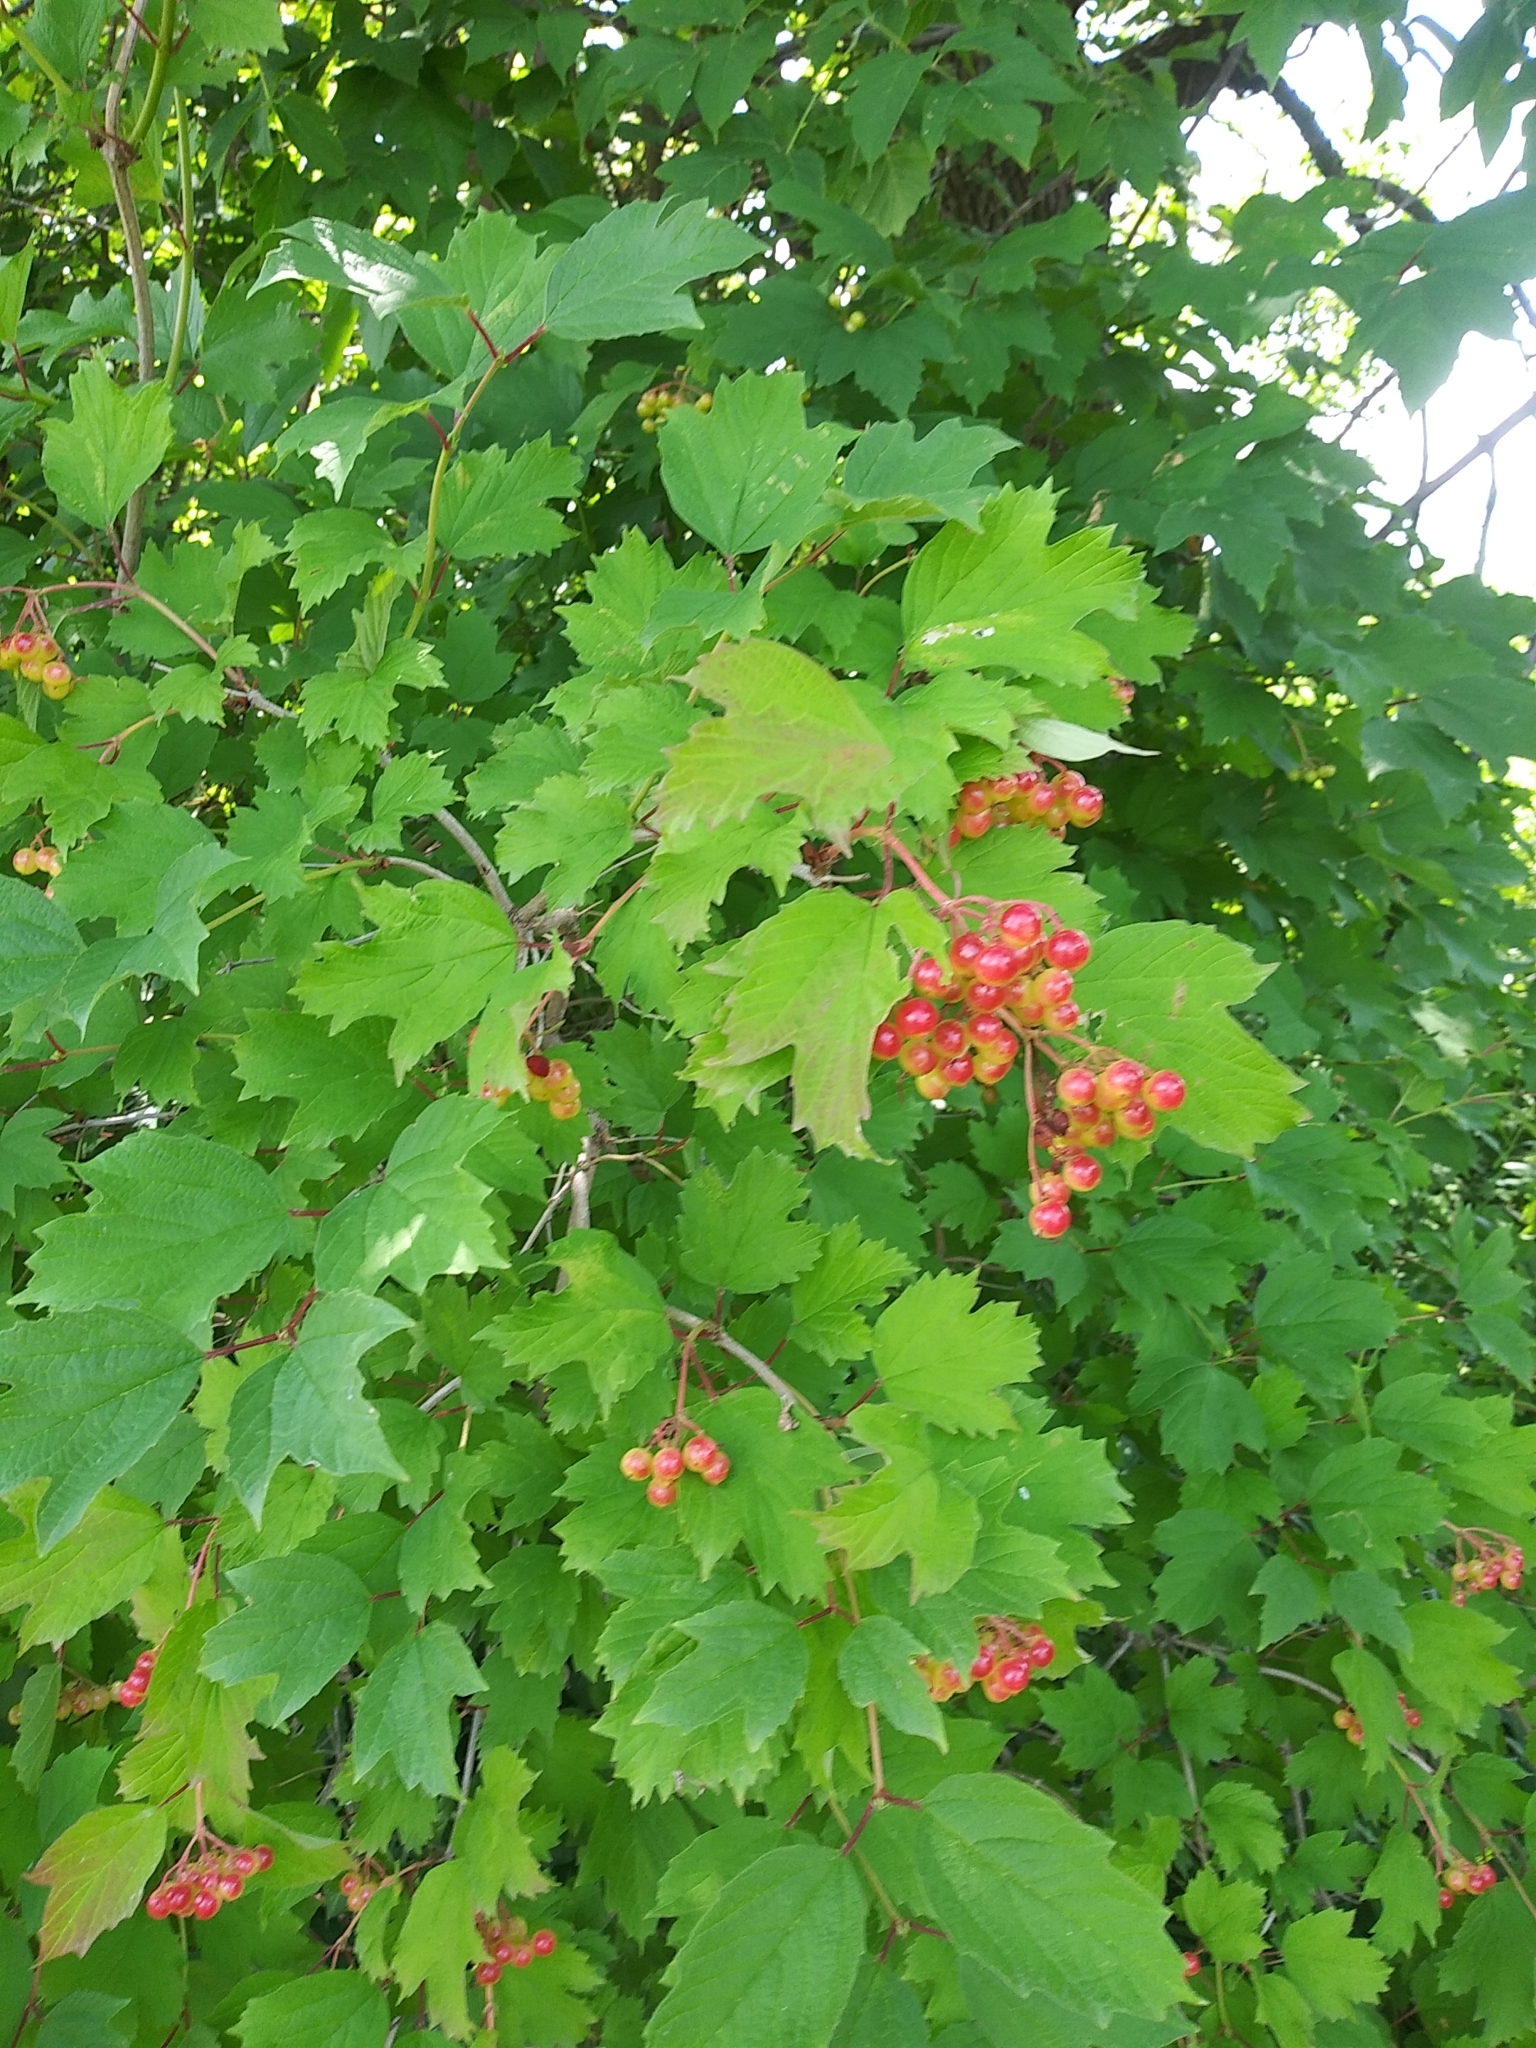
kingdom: Plantae
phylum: Tracheophyta
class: Magnoliopsida
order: Dipsacales
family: Viburnaceae
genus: Viburnum
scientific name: Viburnum opulus
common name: Guelder-rose
